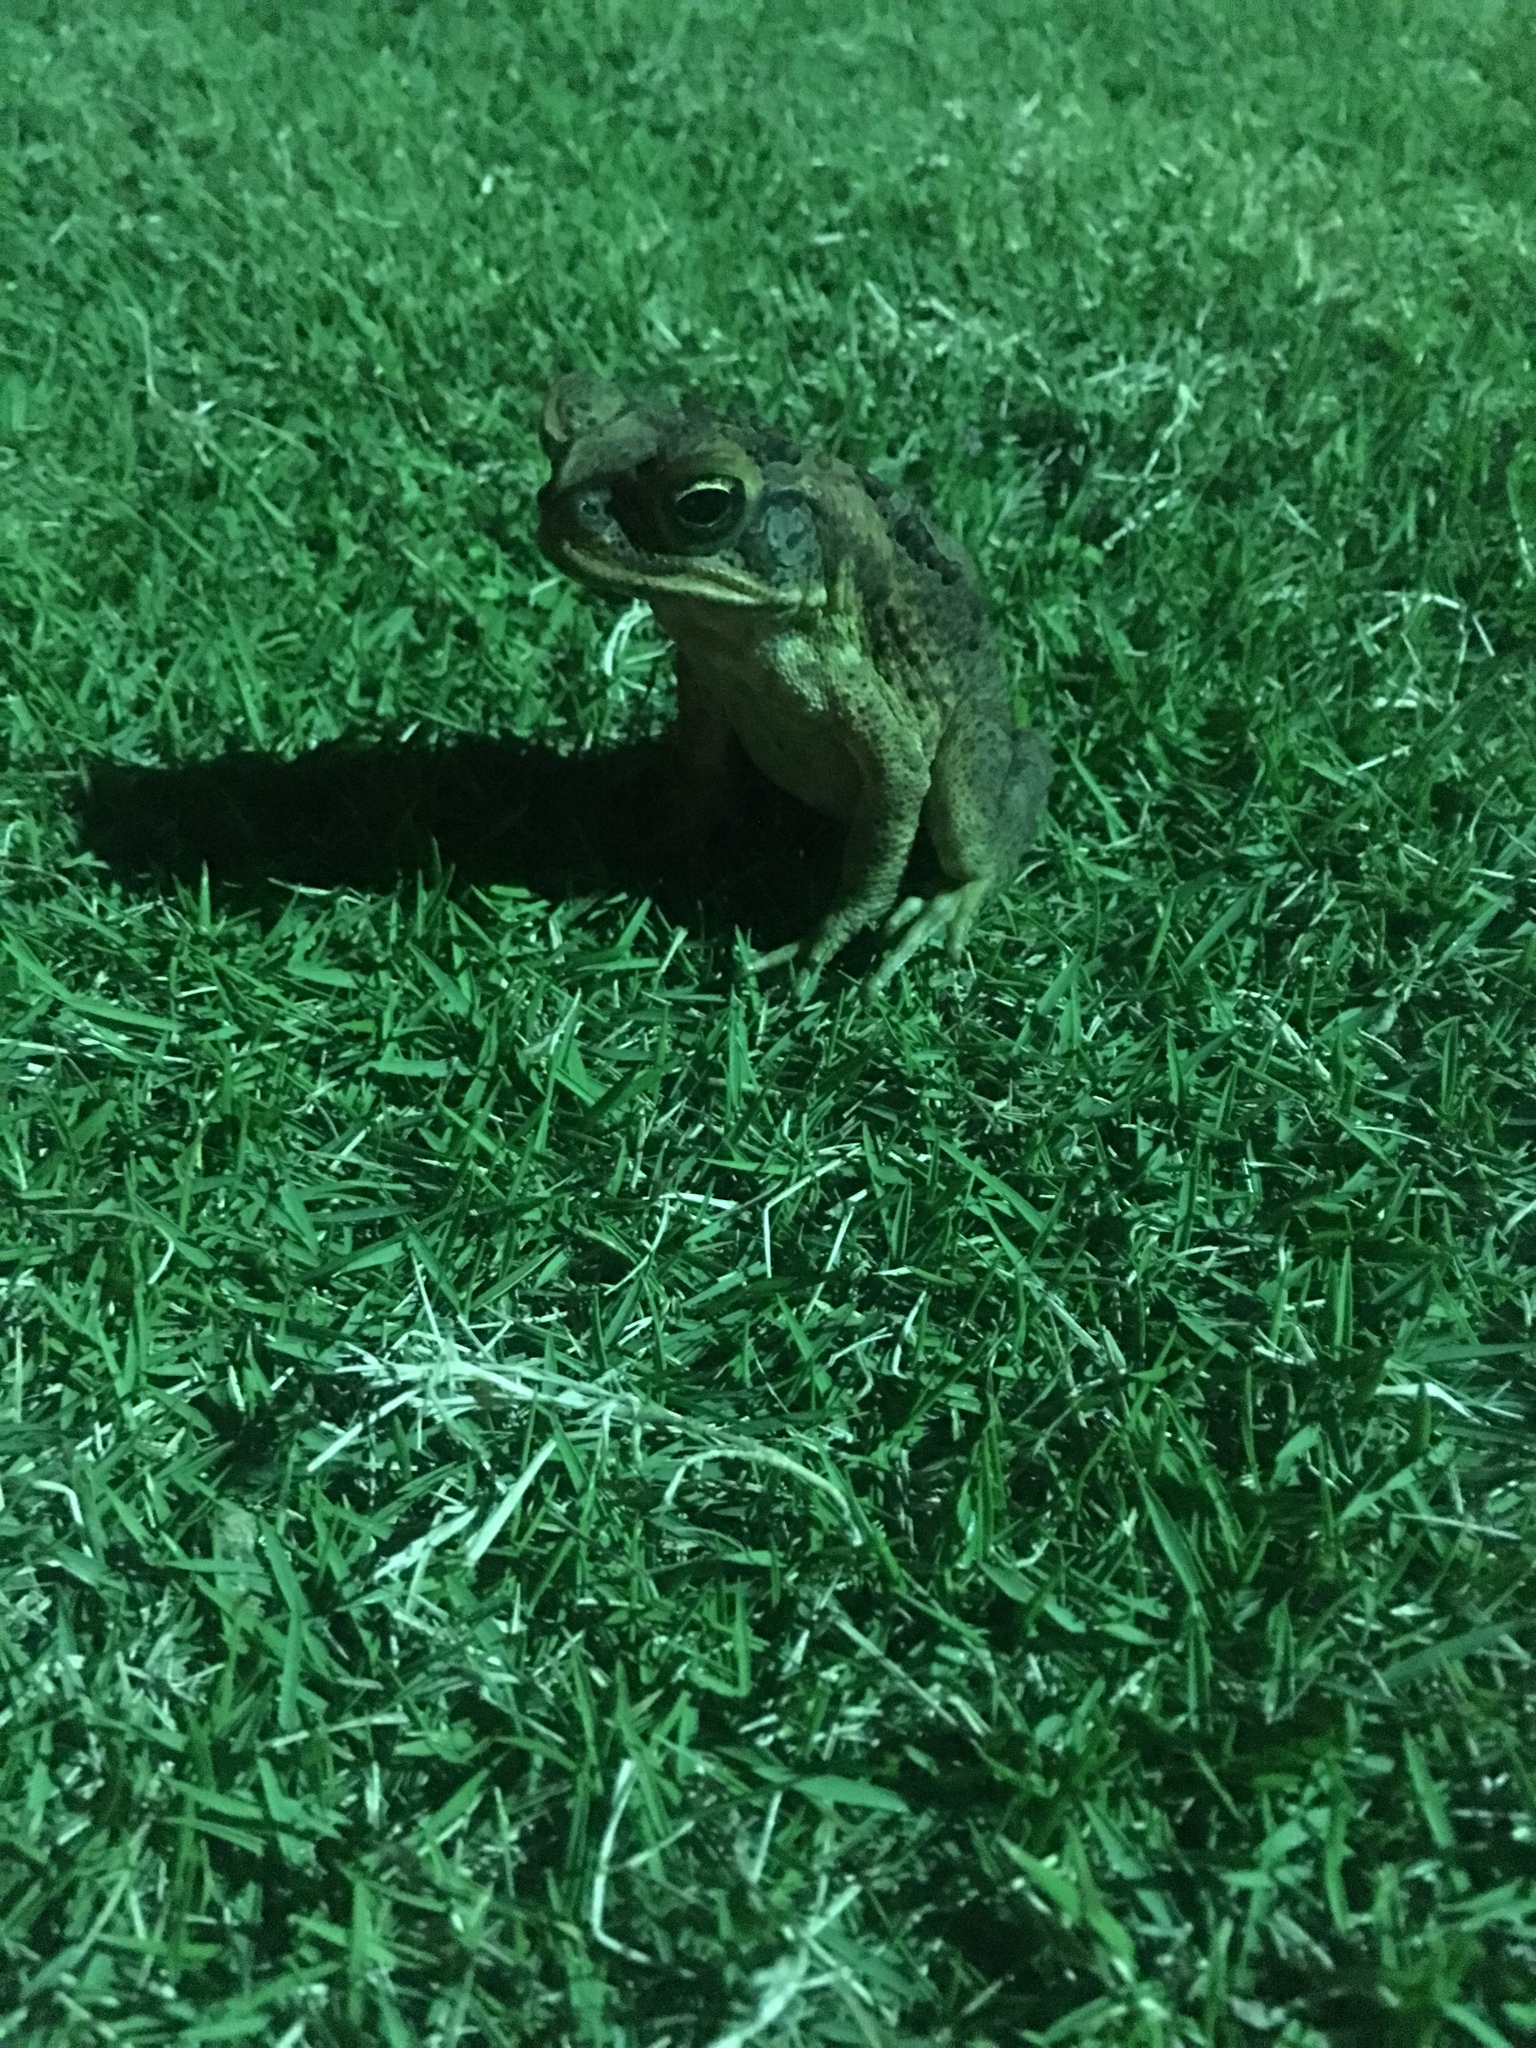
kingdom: Animalia
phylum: Chordata
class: Amphibia
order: Anura
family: Bufonidae
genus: Rhinella
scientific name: Rhinella marina
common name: Cane toad
